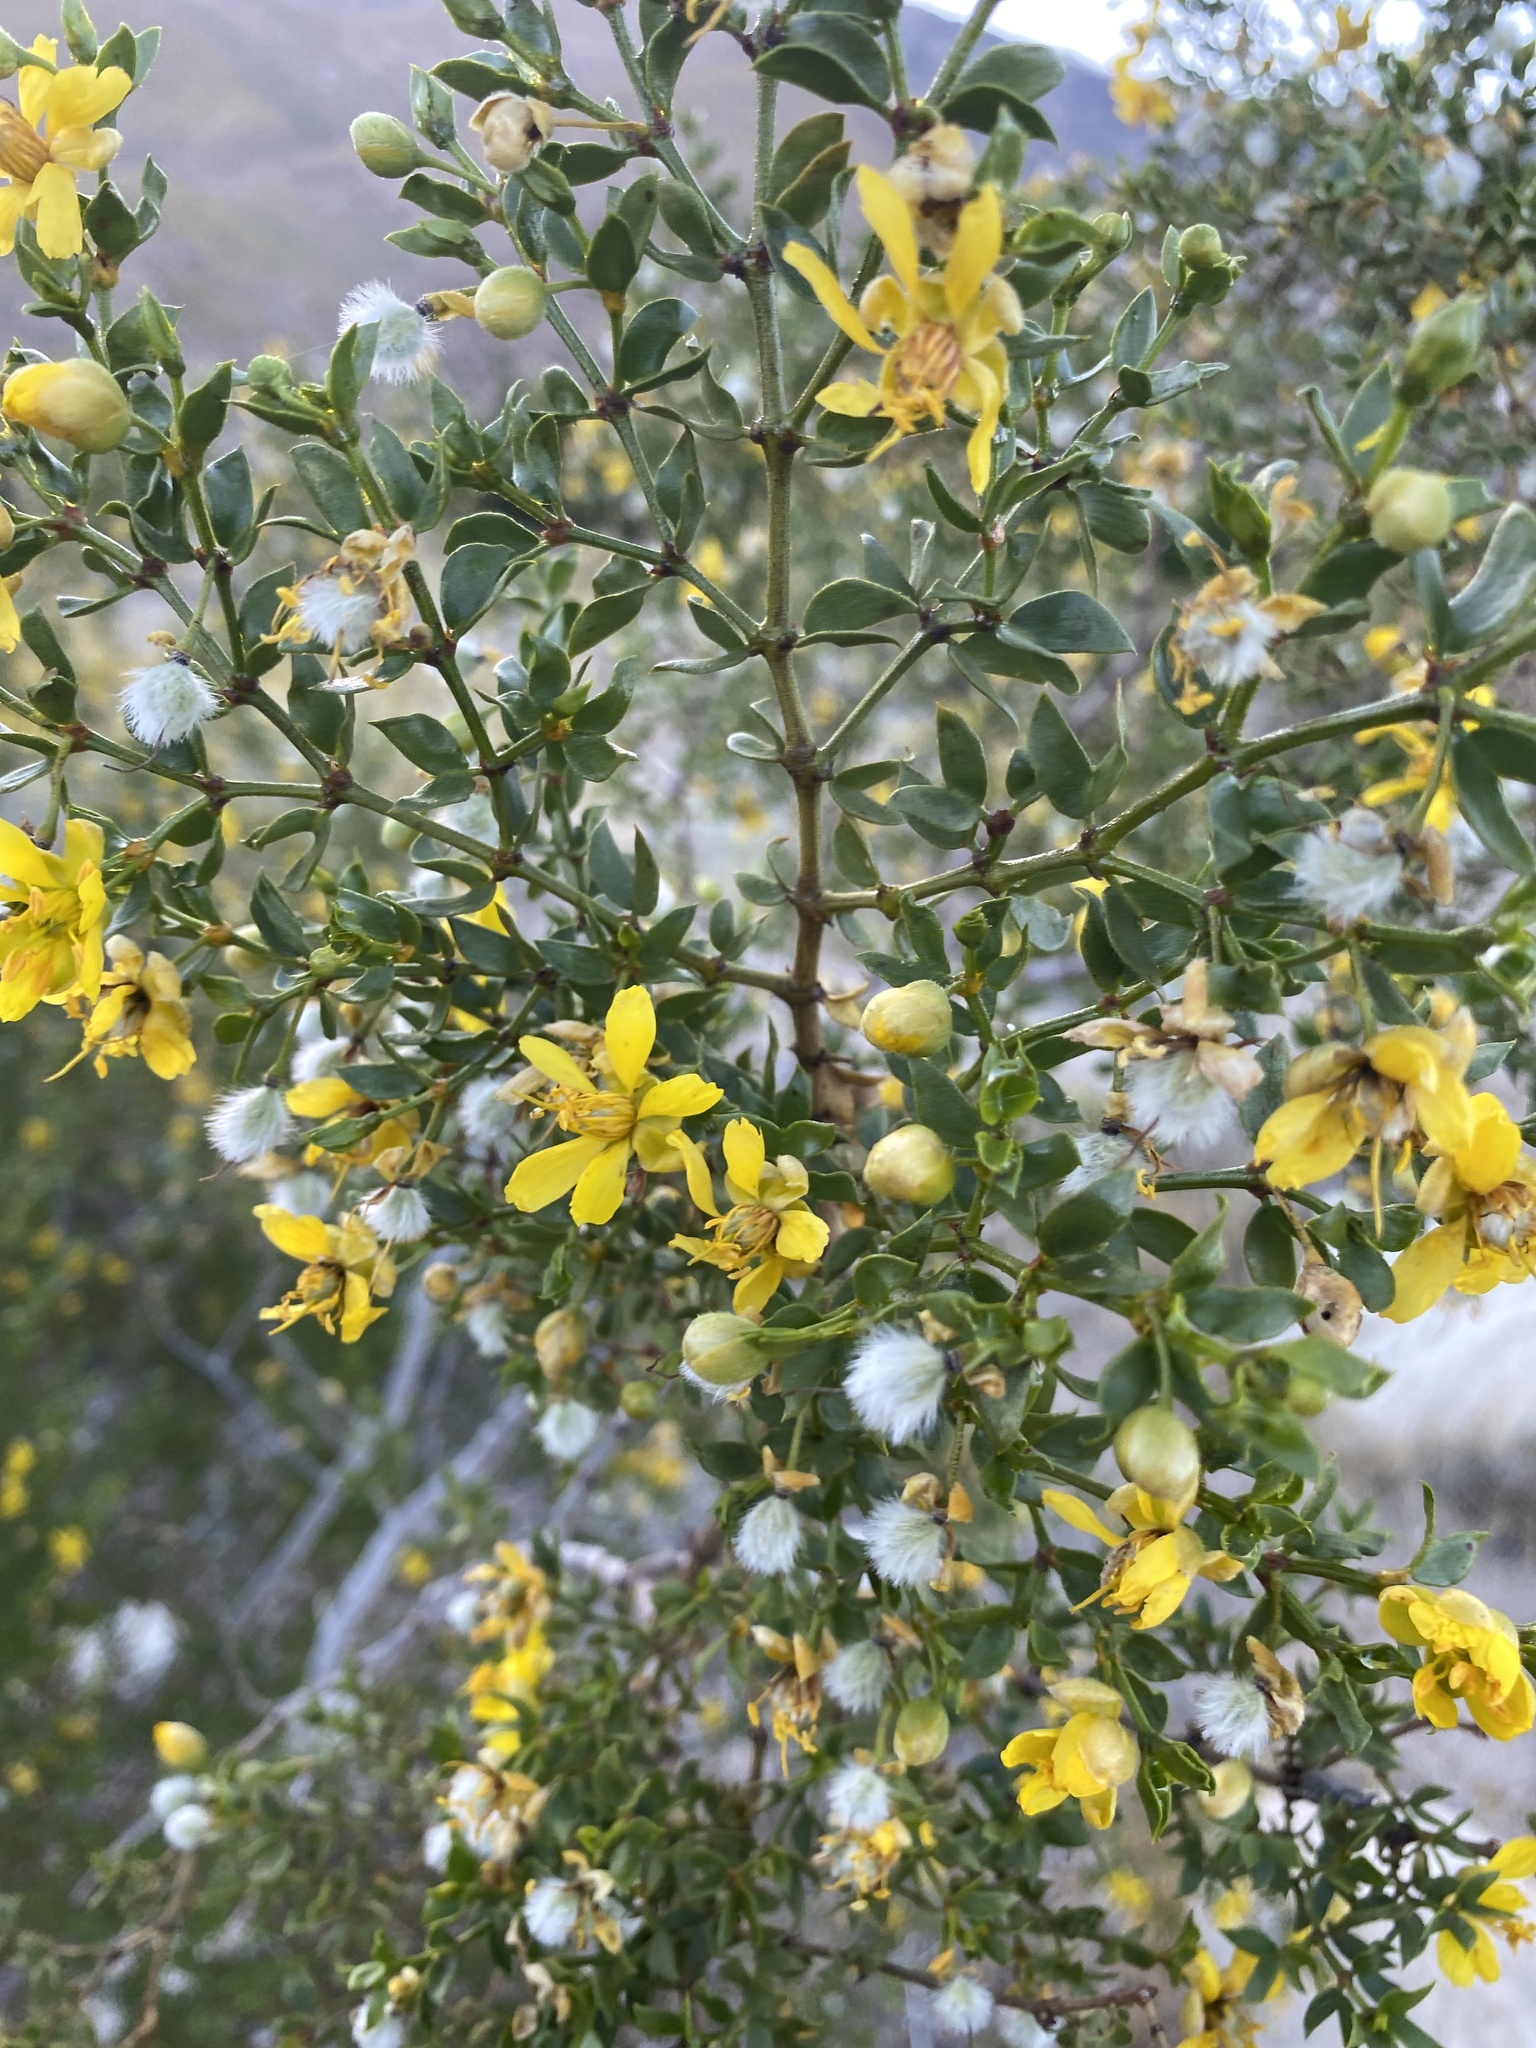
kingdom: Plantae
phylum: Tracheophyta
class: Magnoliopsida
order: Zygophyllales
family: Zygophyllaceae
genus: Larrea
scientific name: Larrea tridentata
